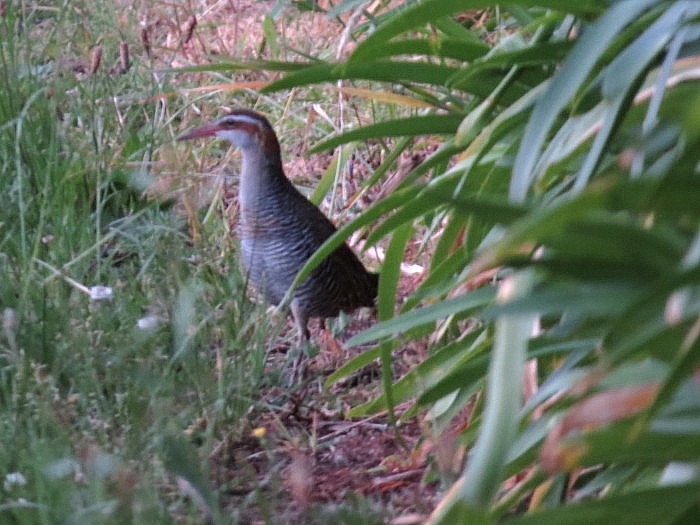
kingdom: Animalia
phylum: Chordata
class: Aves
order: Gruiformes
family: Rallidae
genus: Gallirallus
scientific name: Gallirallus philippensis
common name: Buff-banded rail
